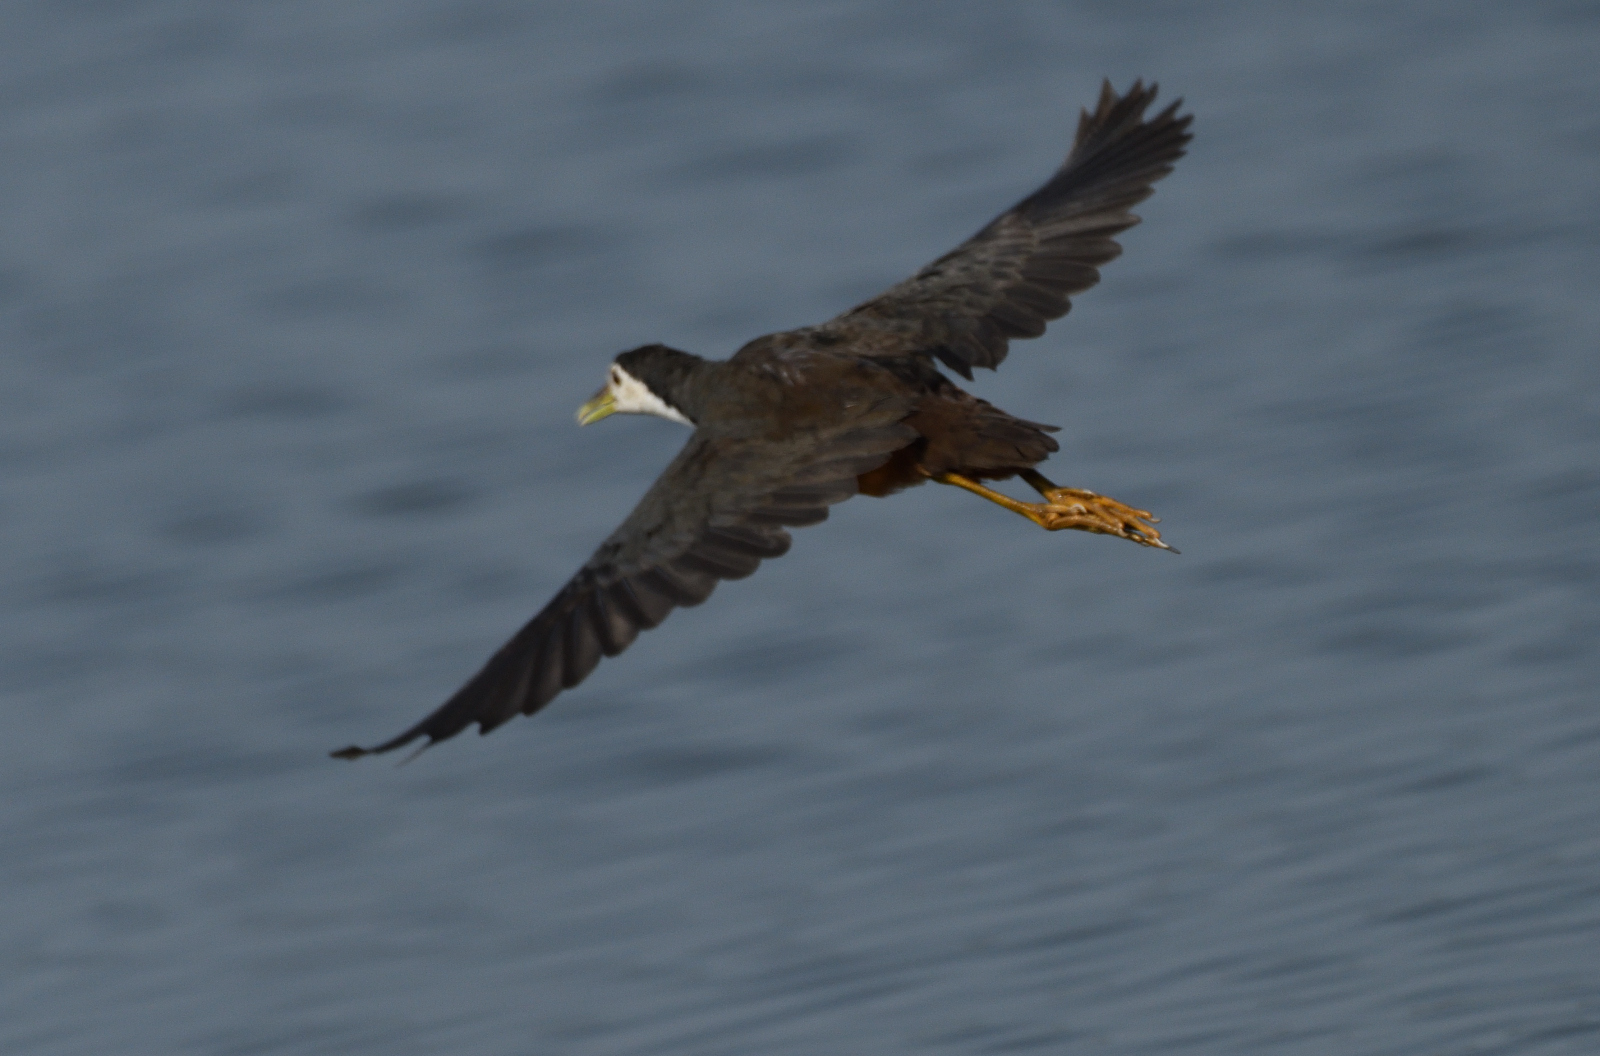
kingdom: Animalia
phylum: Chordata
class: Aves
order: Gruiformes
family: Rallidae
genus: Amaurornis
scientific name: Amaurornis phoenicurus
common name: White-breasted waterhen
